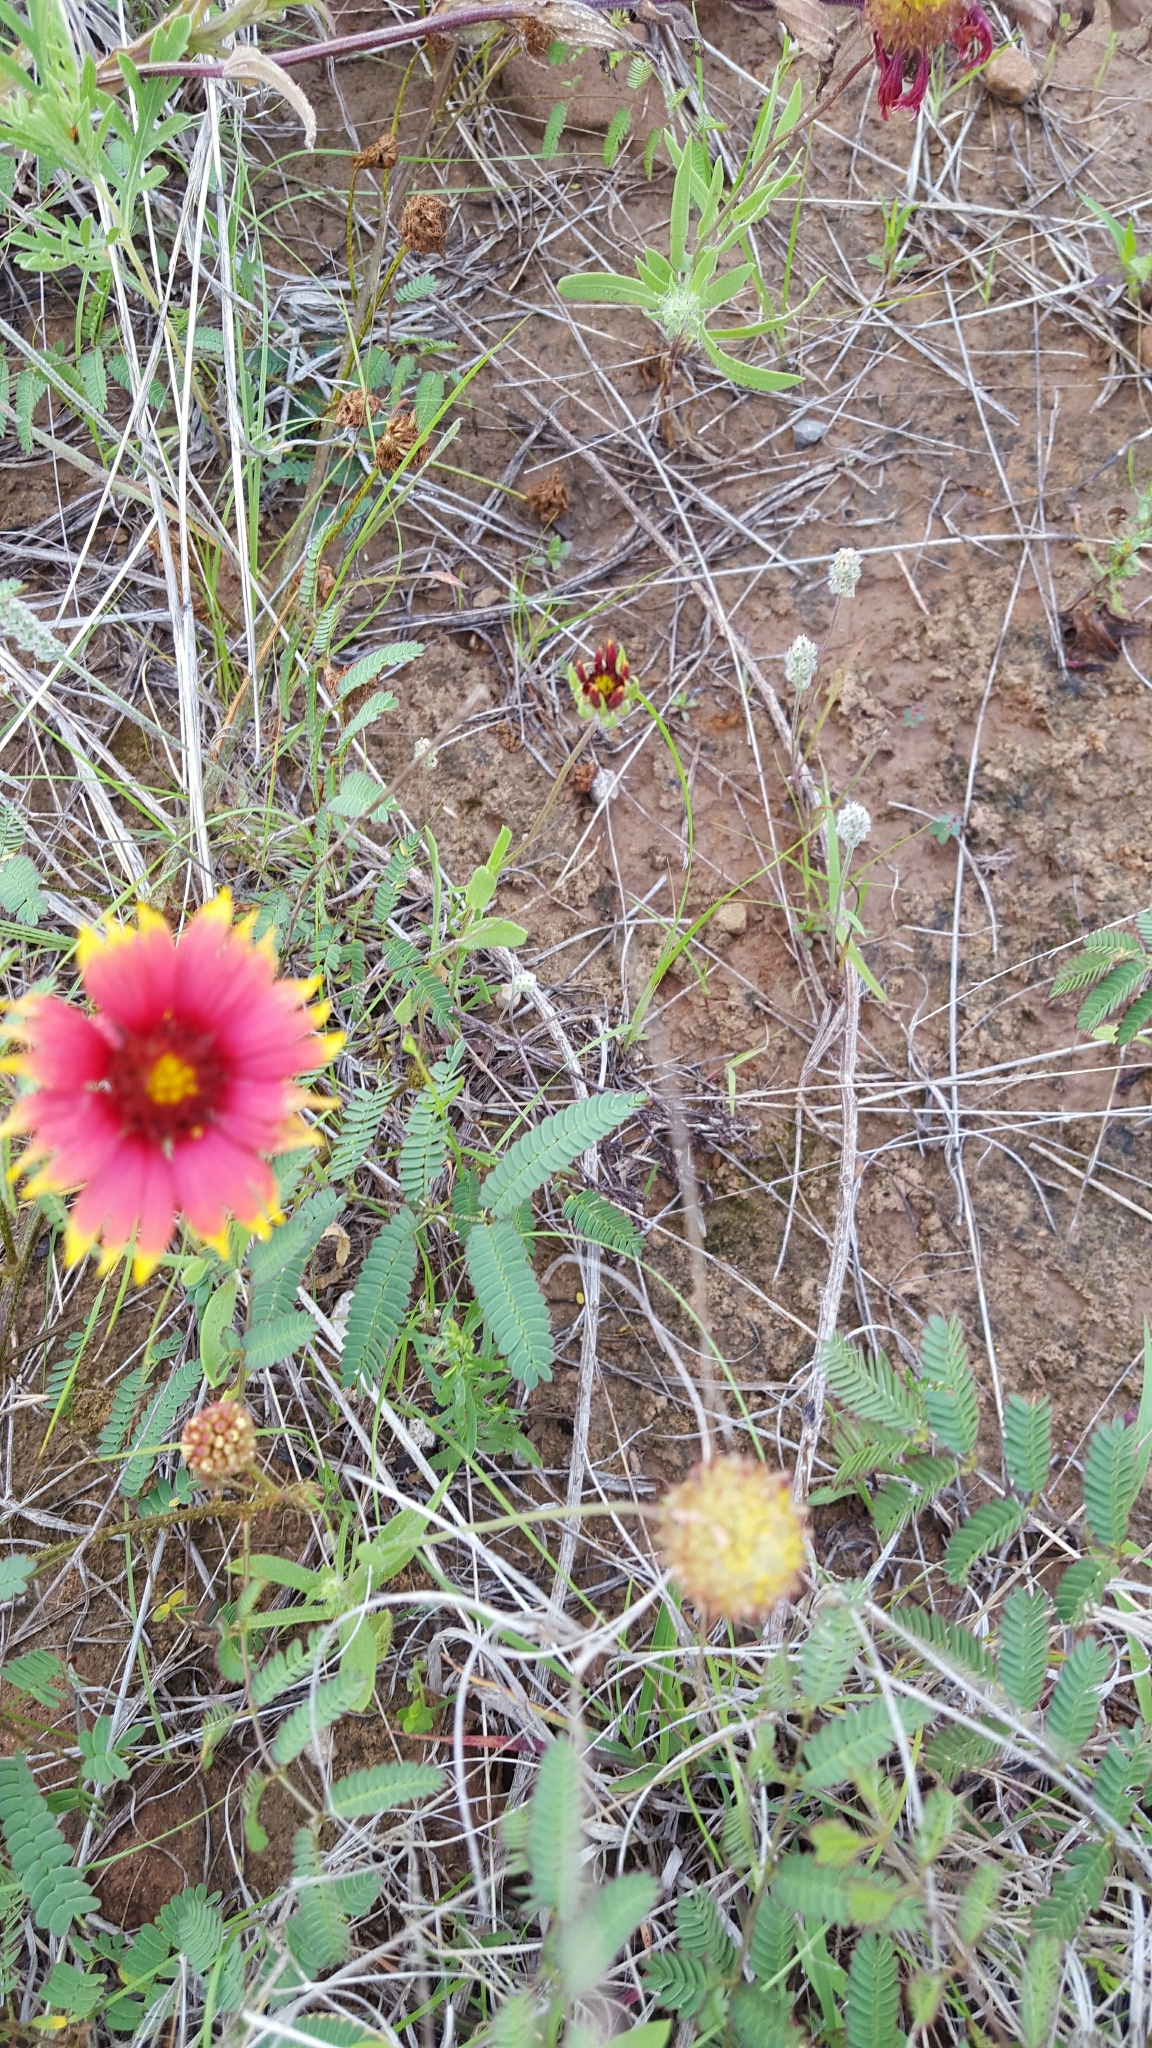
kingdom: Plantae
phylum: Tracheophyta
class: Magnoliopsida
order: Asterales
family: Asteraceae
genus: Gaillardia
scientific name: Gaillardia pulchella
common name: Firewheel
